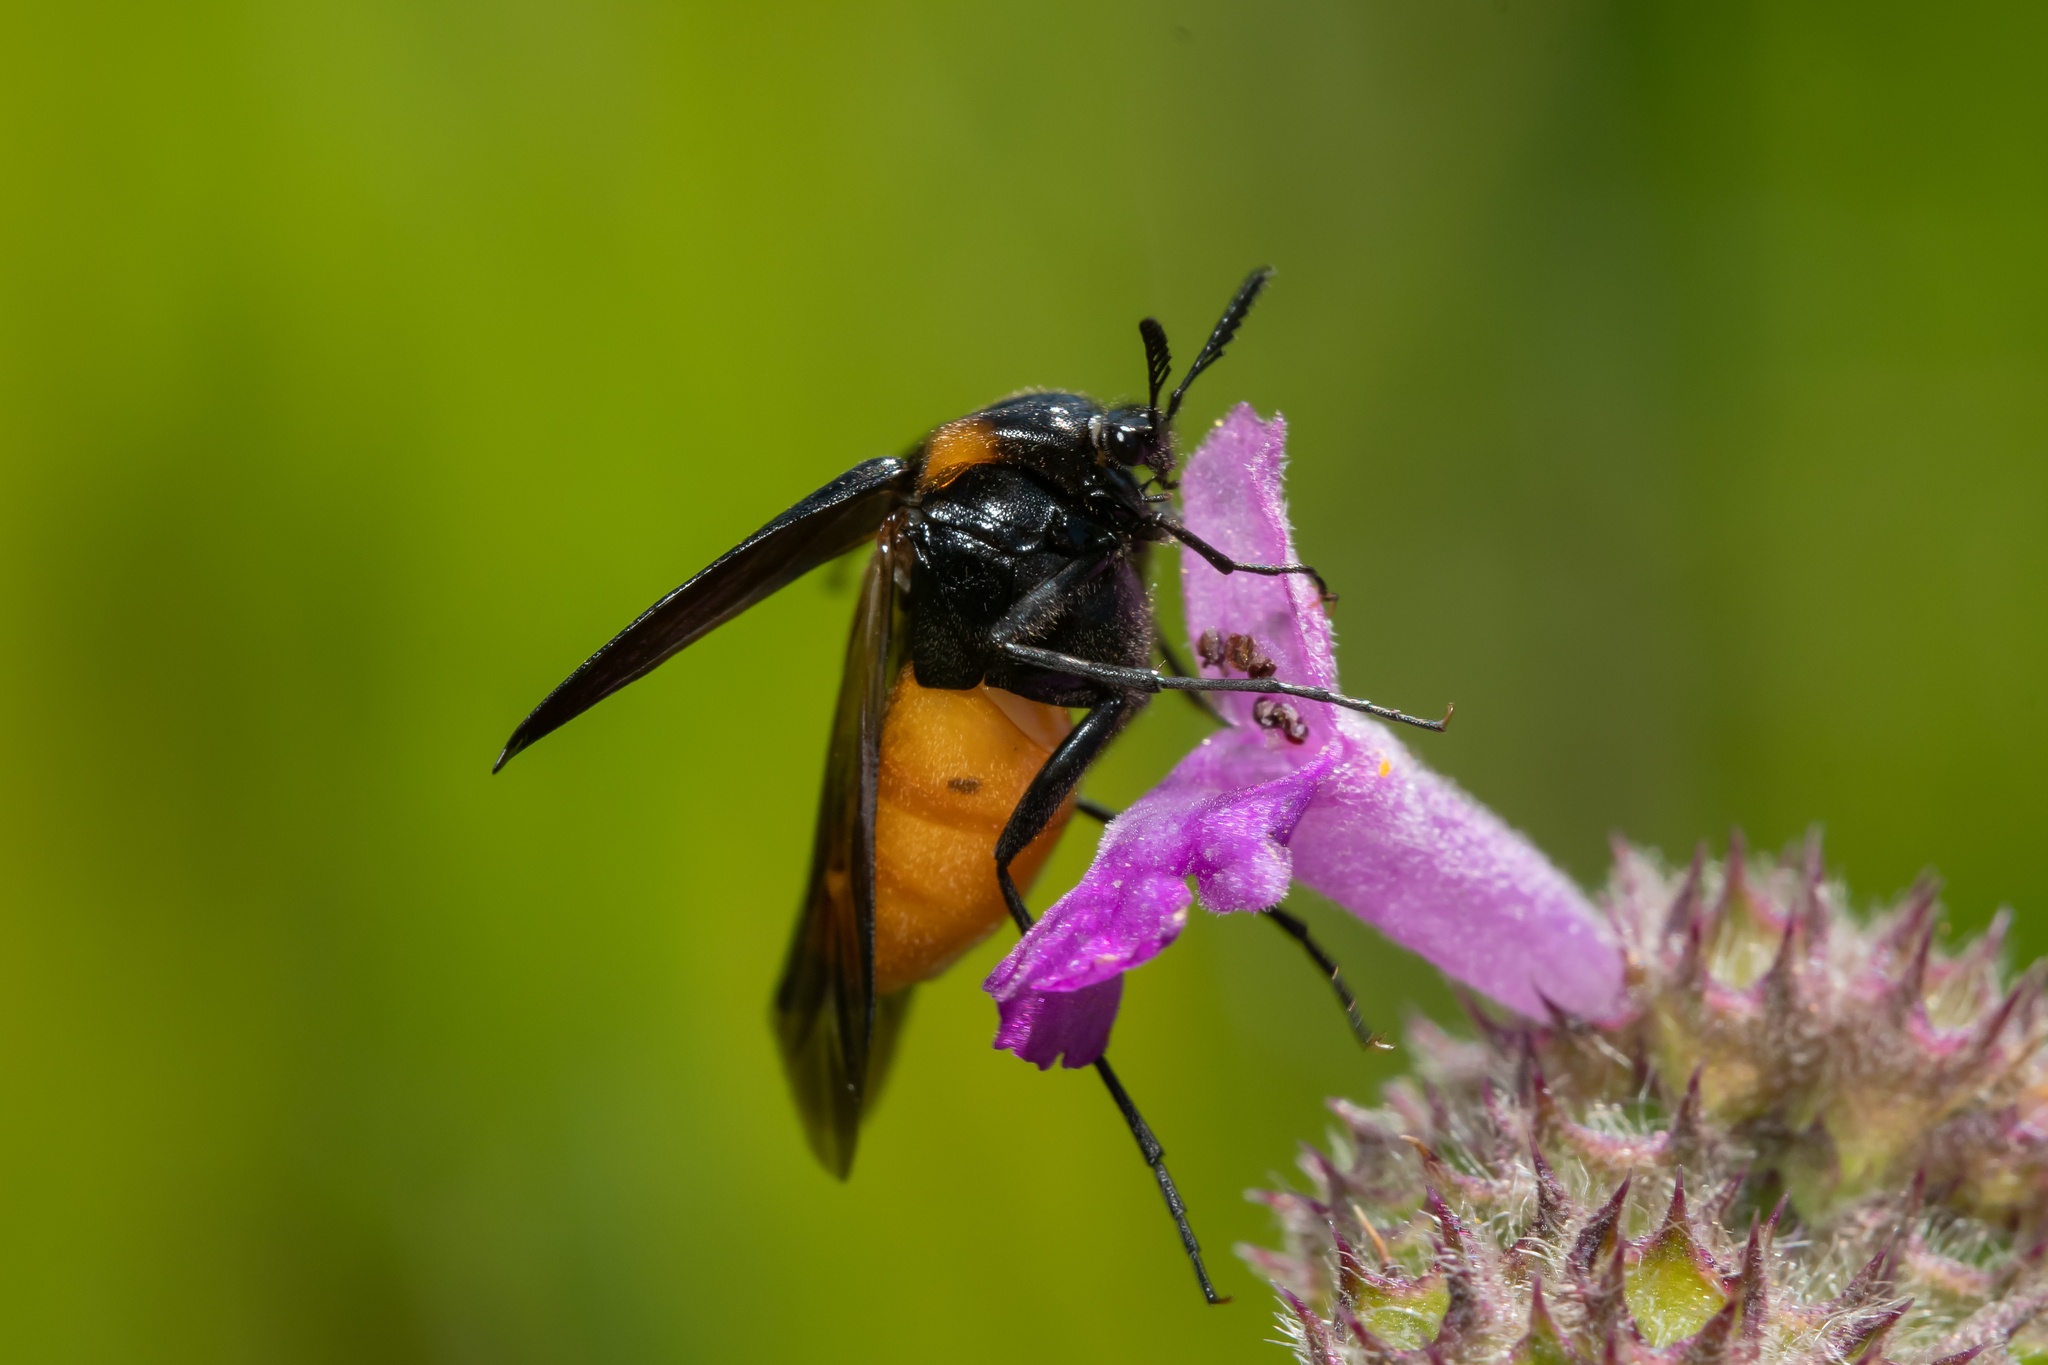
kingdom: Animalia
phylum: Arthropoda
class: Insecta
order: Coleoptera
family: Ripiphoridae
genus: Metoecus
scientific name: Metoecus paradoxus
